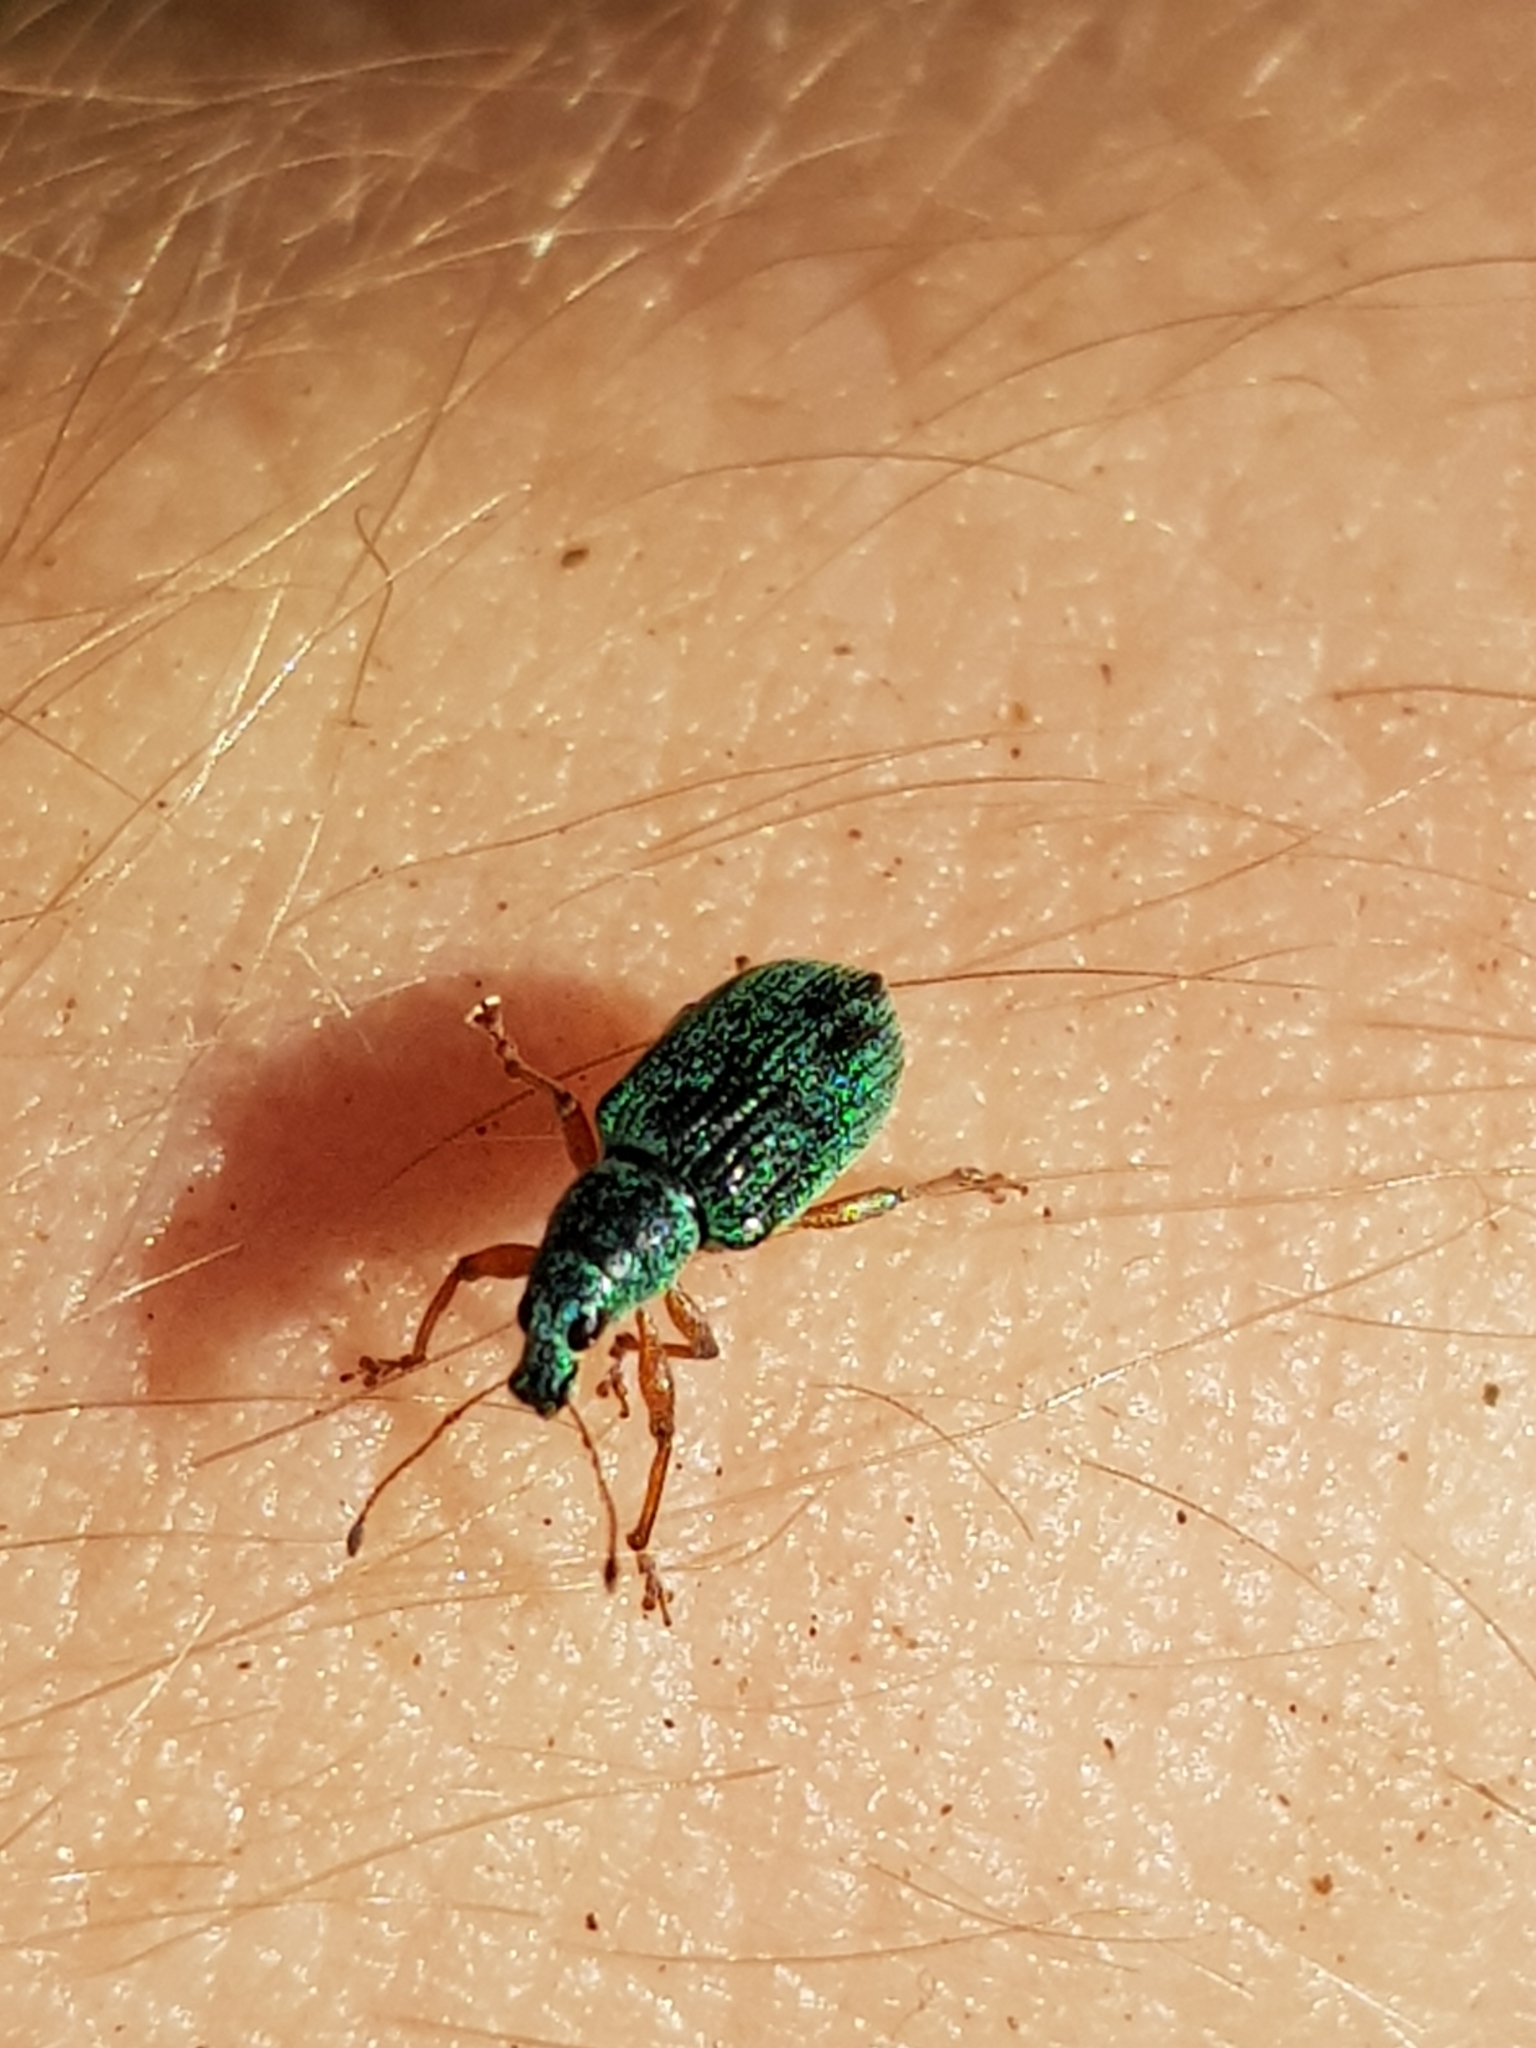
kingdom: Animalia
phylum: Arthropoda
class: Insecta
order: Coleoptera
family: Curculionidae
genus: Polydrusus
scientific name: Polydrusus formosus
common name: Weevil
